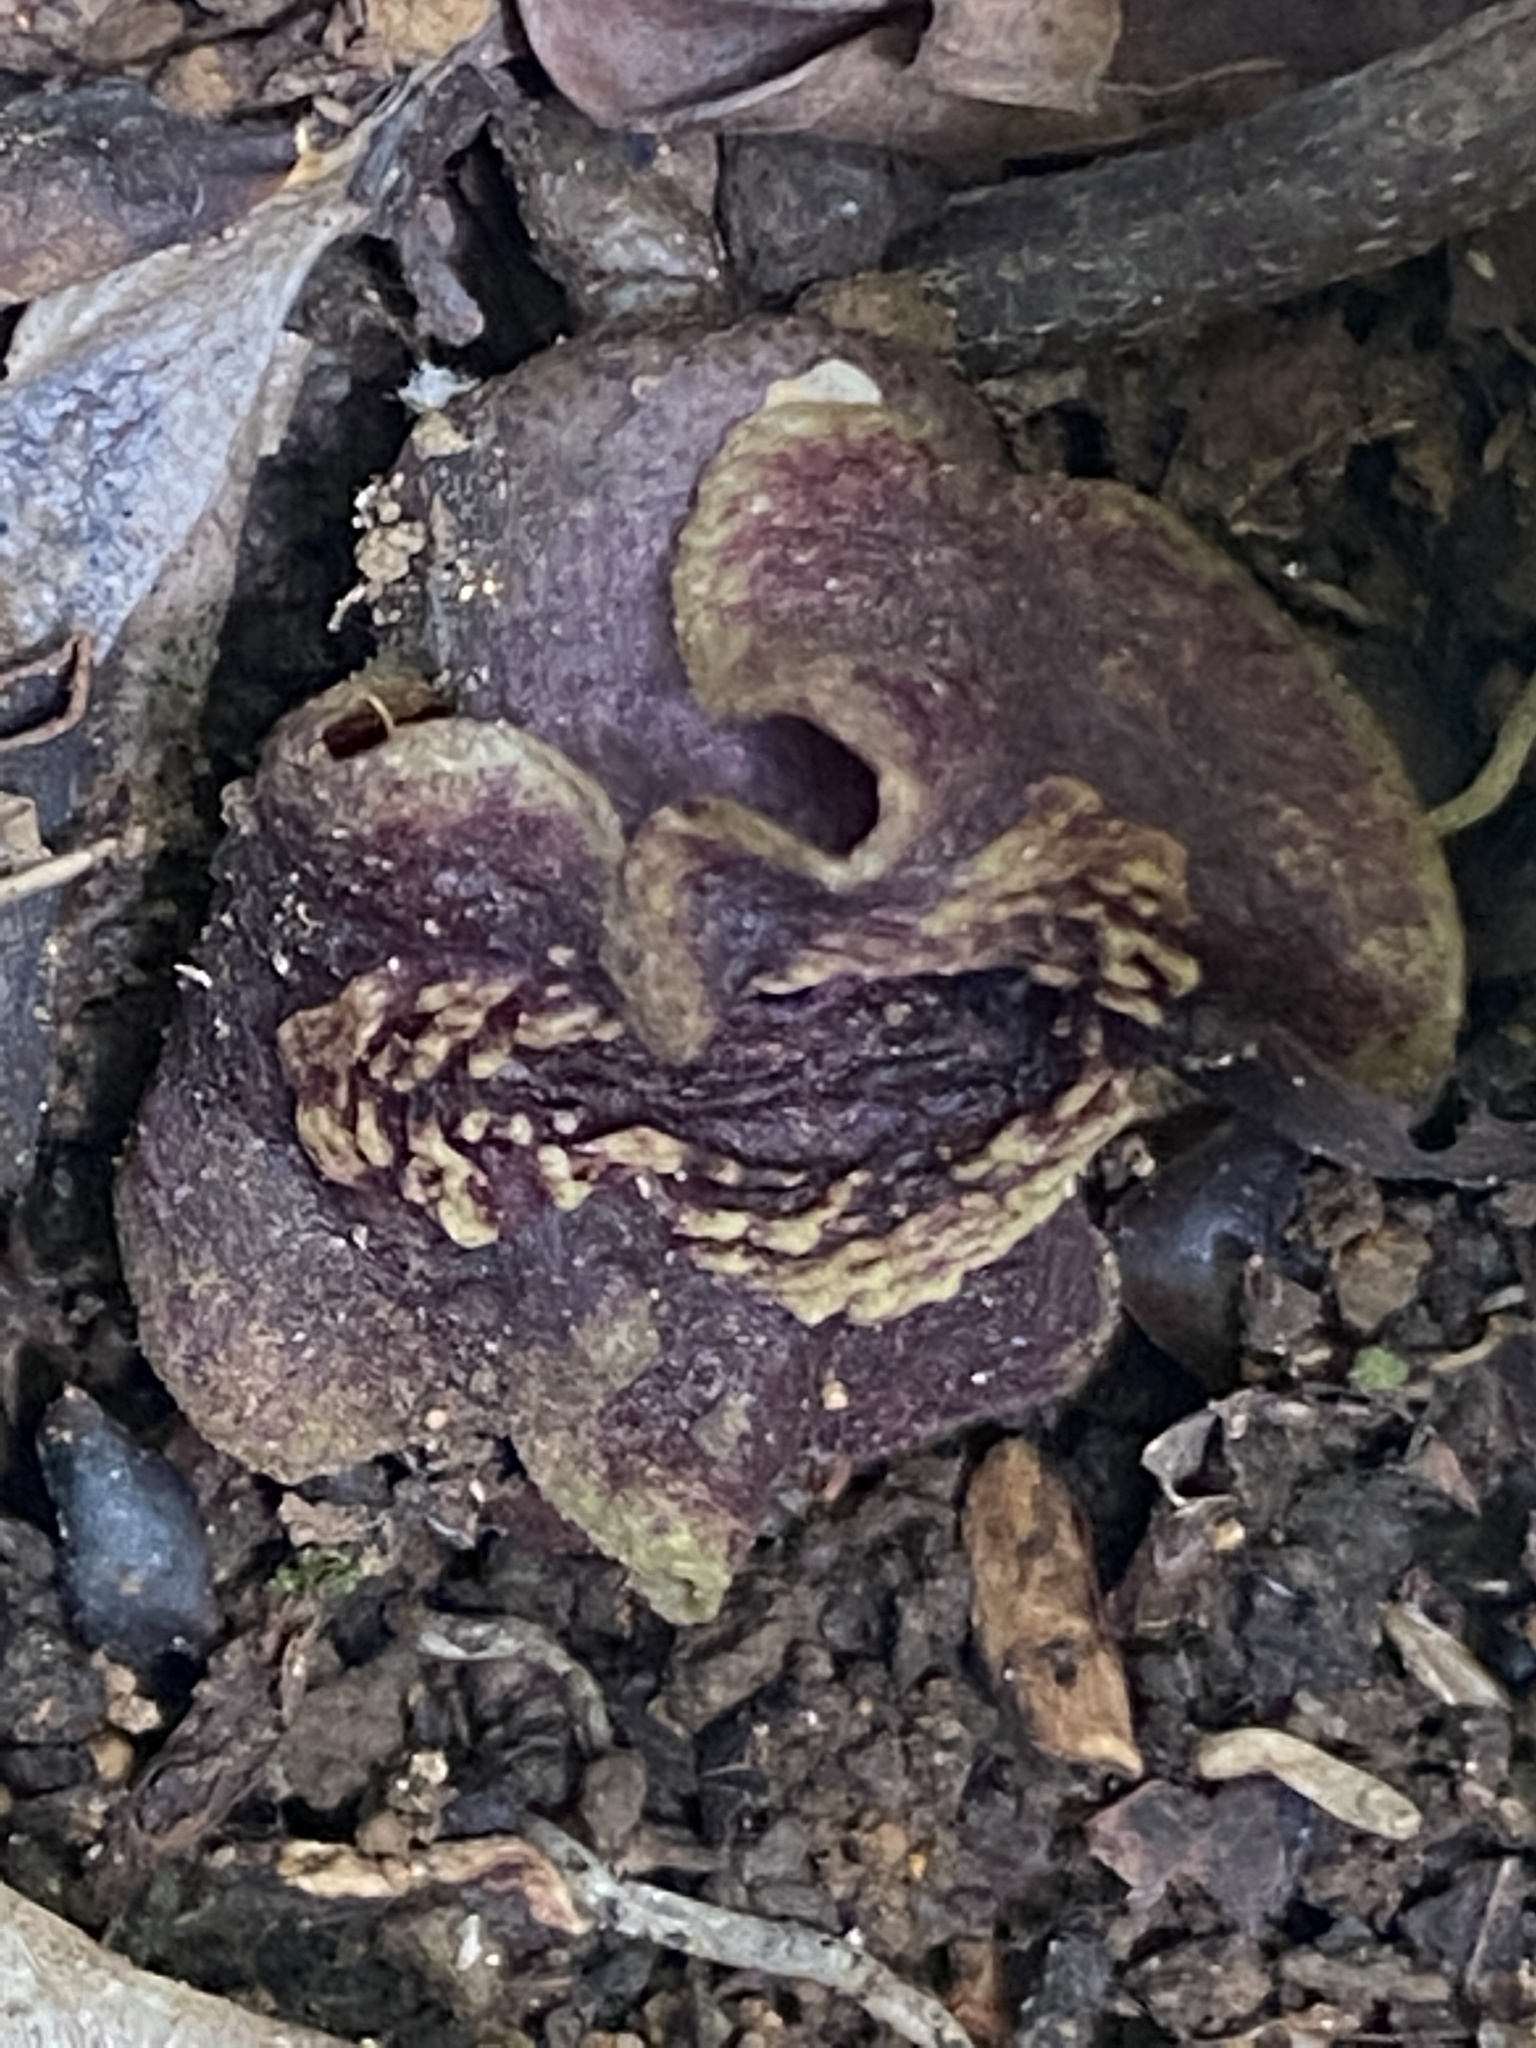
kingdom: Plantae
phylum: Tracheophyta
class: Magnoliopsida
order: Piperales
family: Aristolochiaceae
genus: Isotrema
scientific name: Isotrema shimadae
